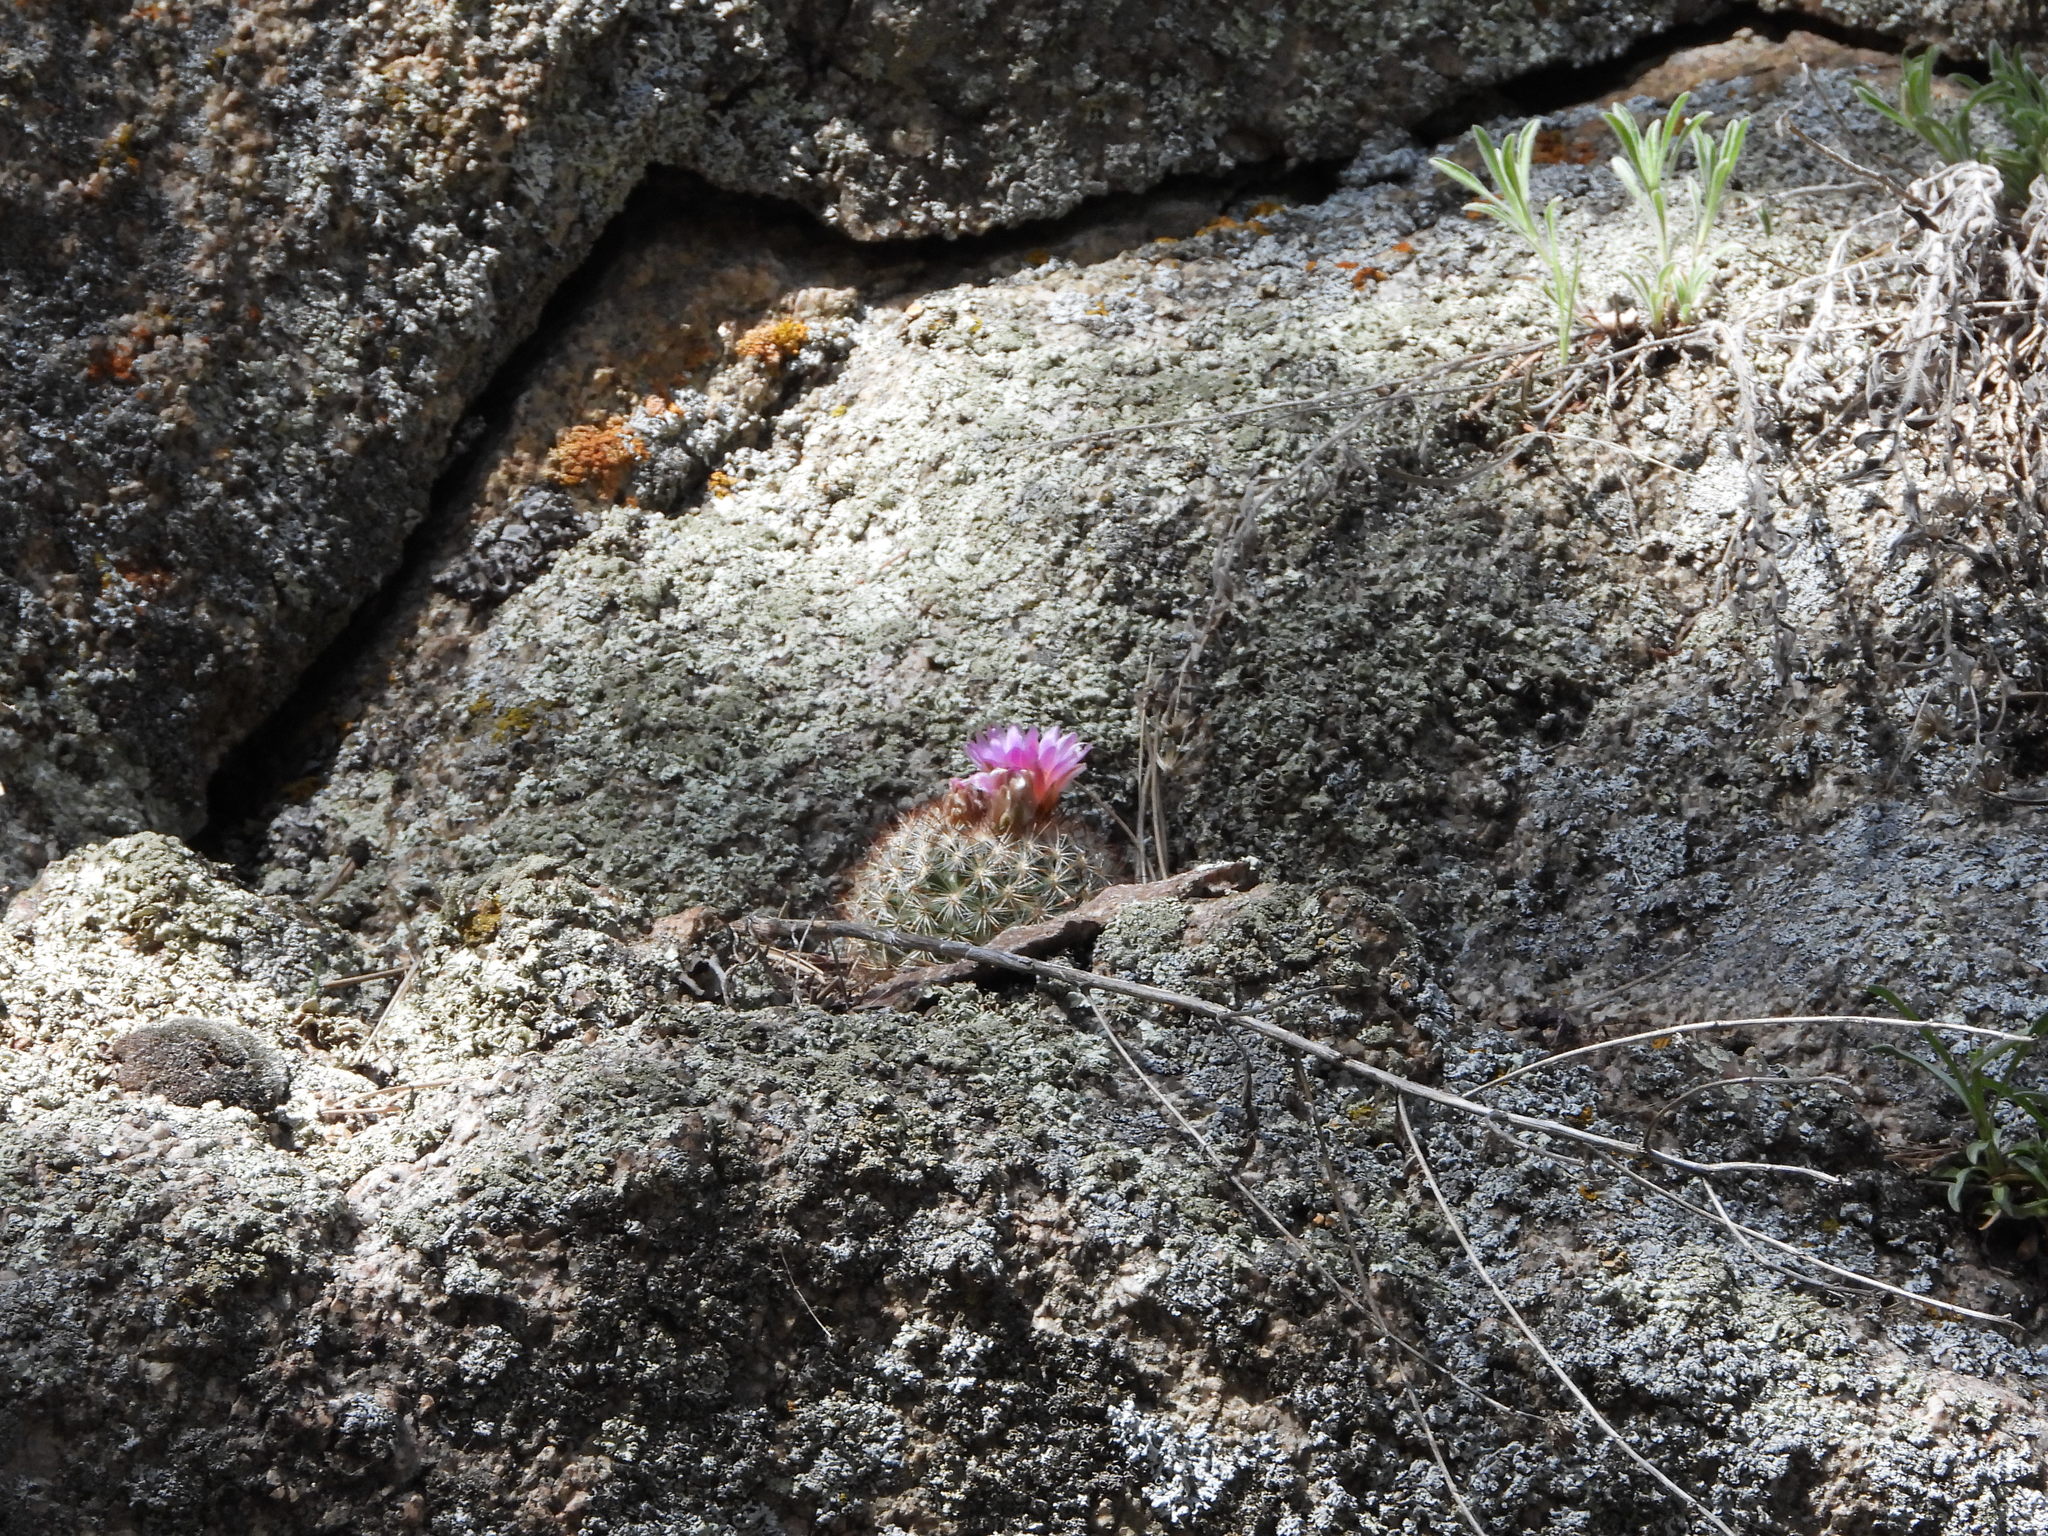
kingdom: Plantae
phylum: Tracheophyta
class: Magnoliopsida
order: Caryophyllales
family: Cactaceae
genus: Pediocactus
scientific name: Pediocactus simpsonii
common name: Simpson's hedgehog cactus
